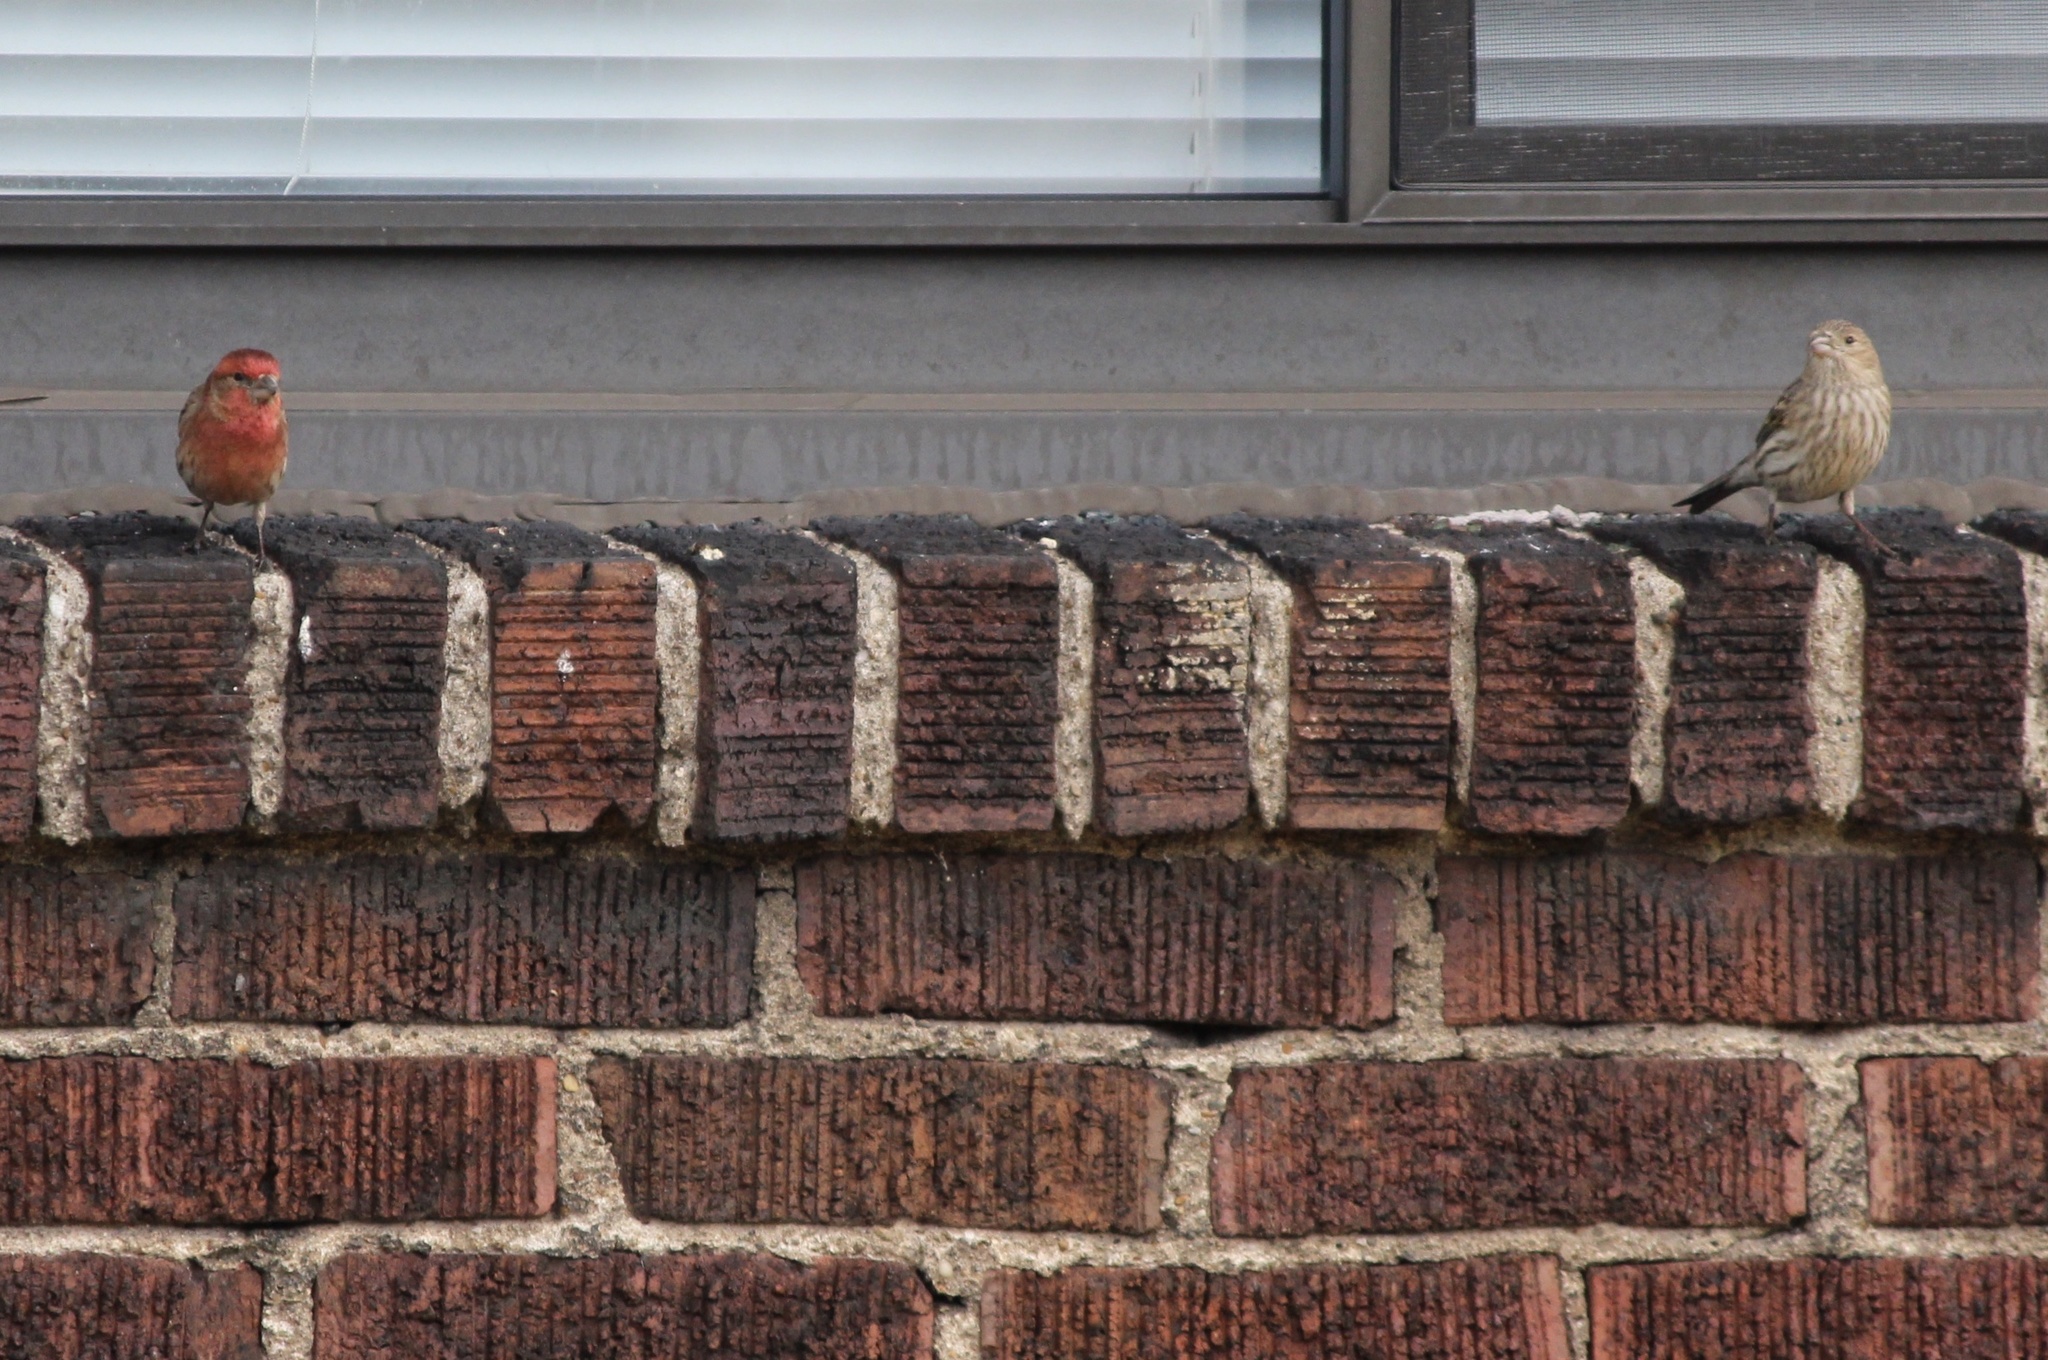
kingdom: Animalia
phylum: Chordata
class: Aves
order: Passeriformes
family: Fringillidae
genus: Haemorhous
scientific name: Haemorhous mexicanus
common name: House finch
